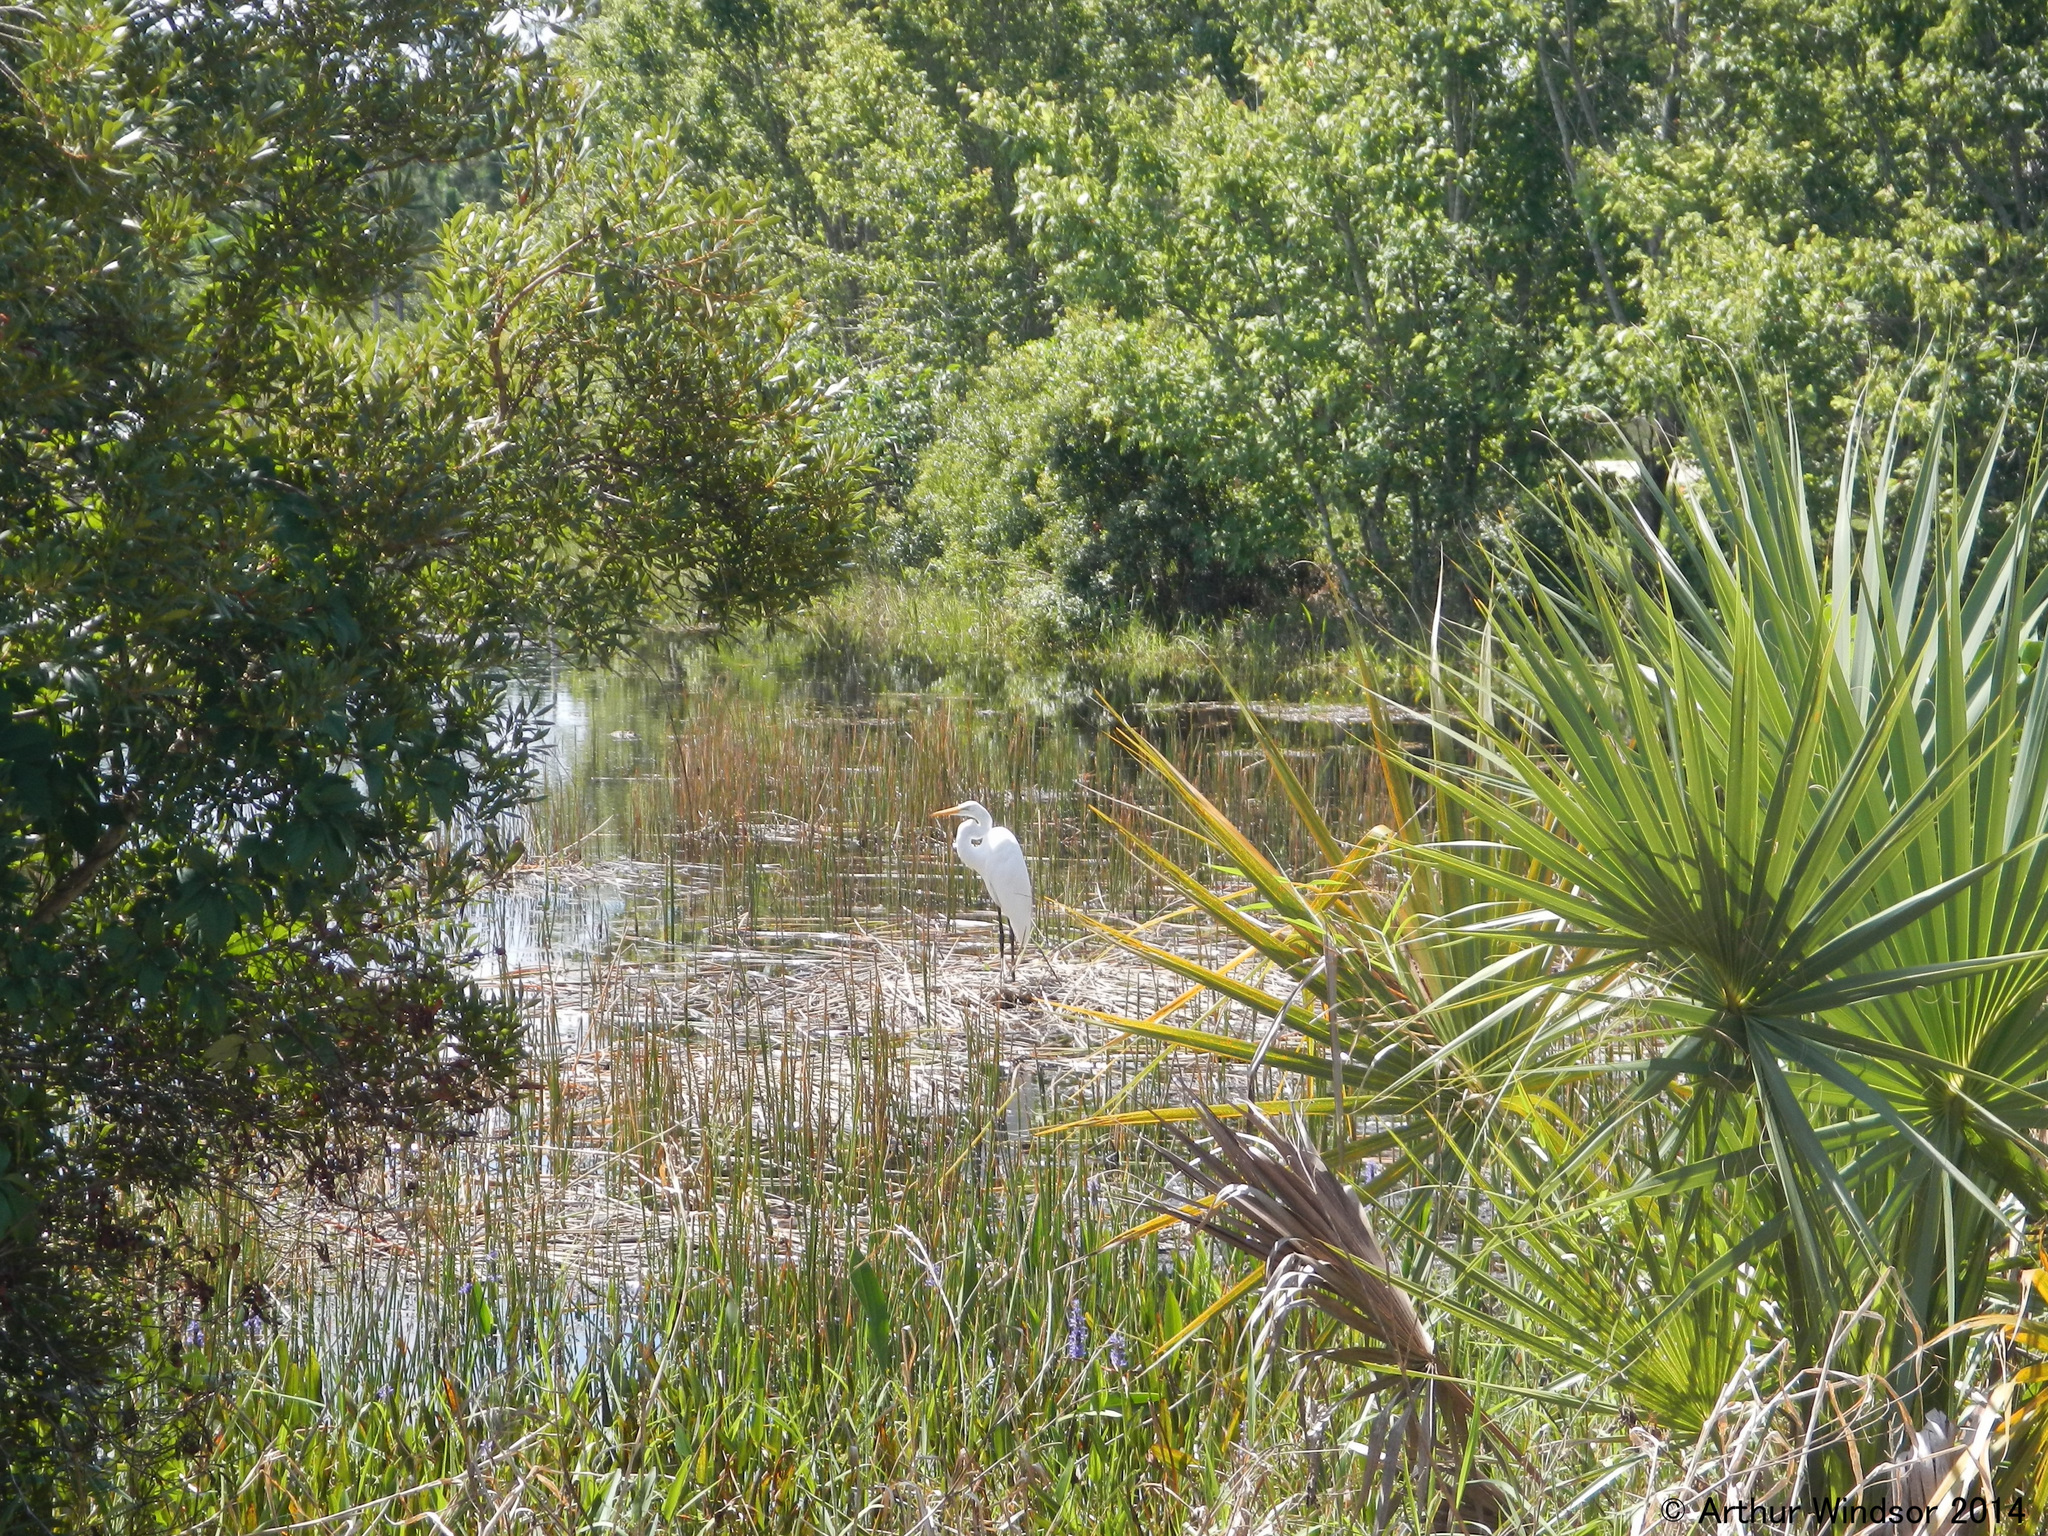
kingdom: Animalia
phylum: Chordata
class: Aves
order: Pelecaniformes
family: Ardeidae
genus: Ardea
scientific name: Ardea alba
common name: Great egret
